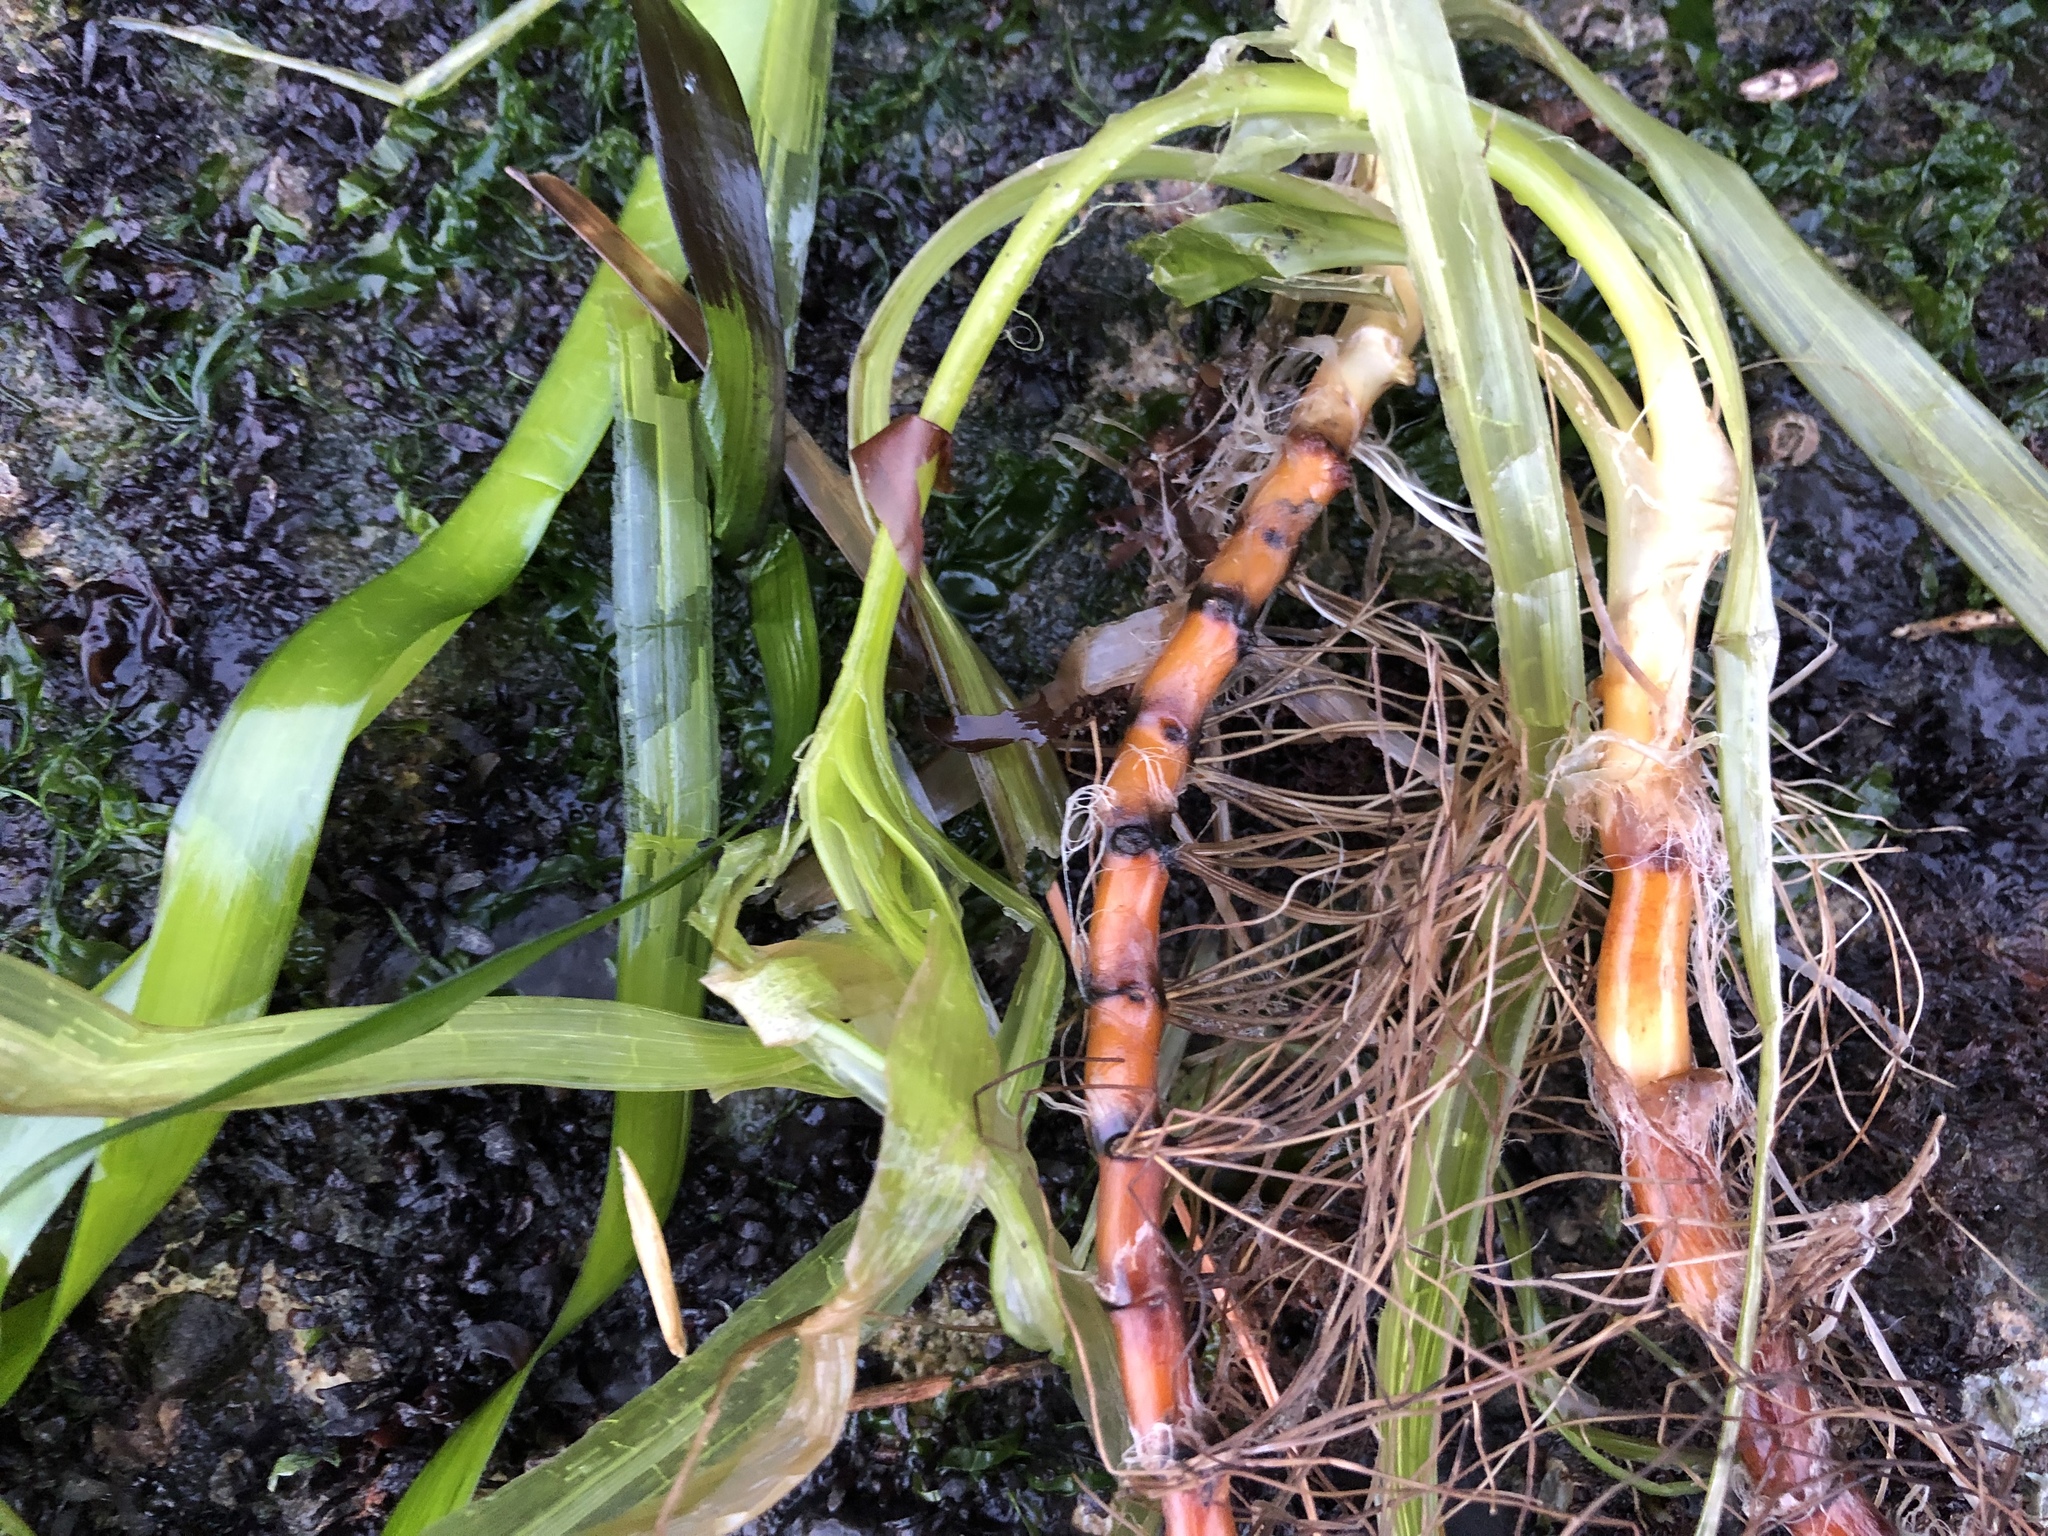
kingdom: Plantae
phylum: Tracheophyta
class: Liliopsida
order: Alismatales
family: Zosteraceae
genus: Zostera
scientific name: Zostera marina
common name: Eelgrass
